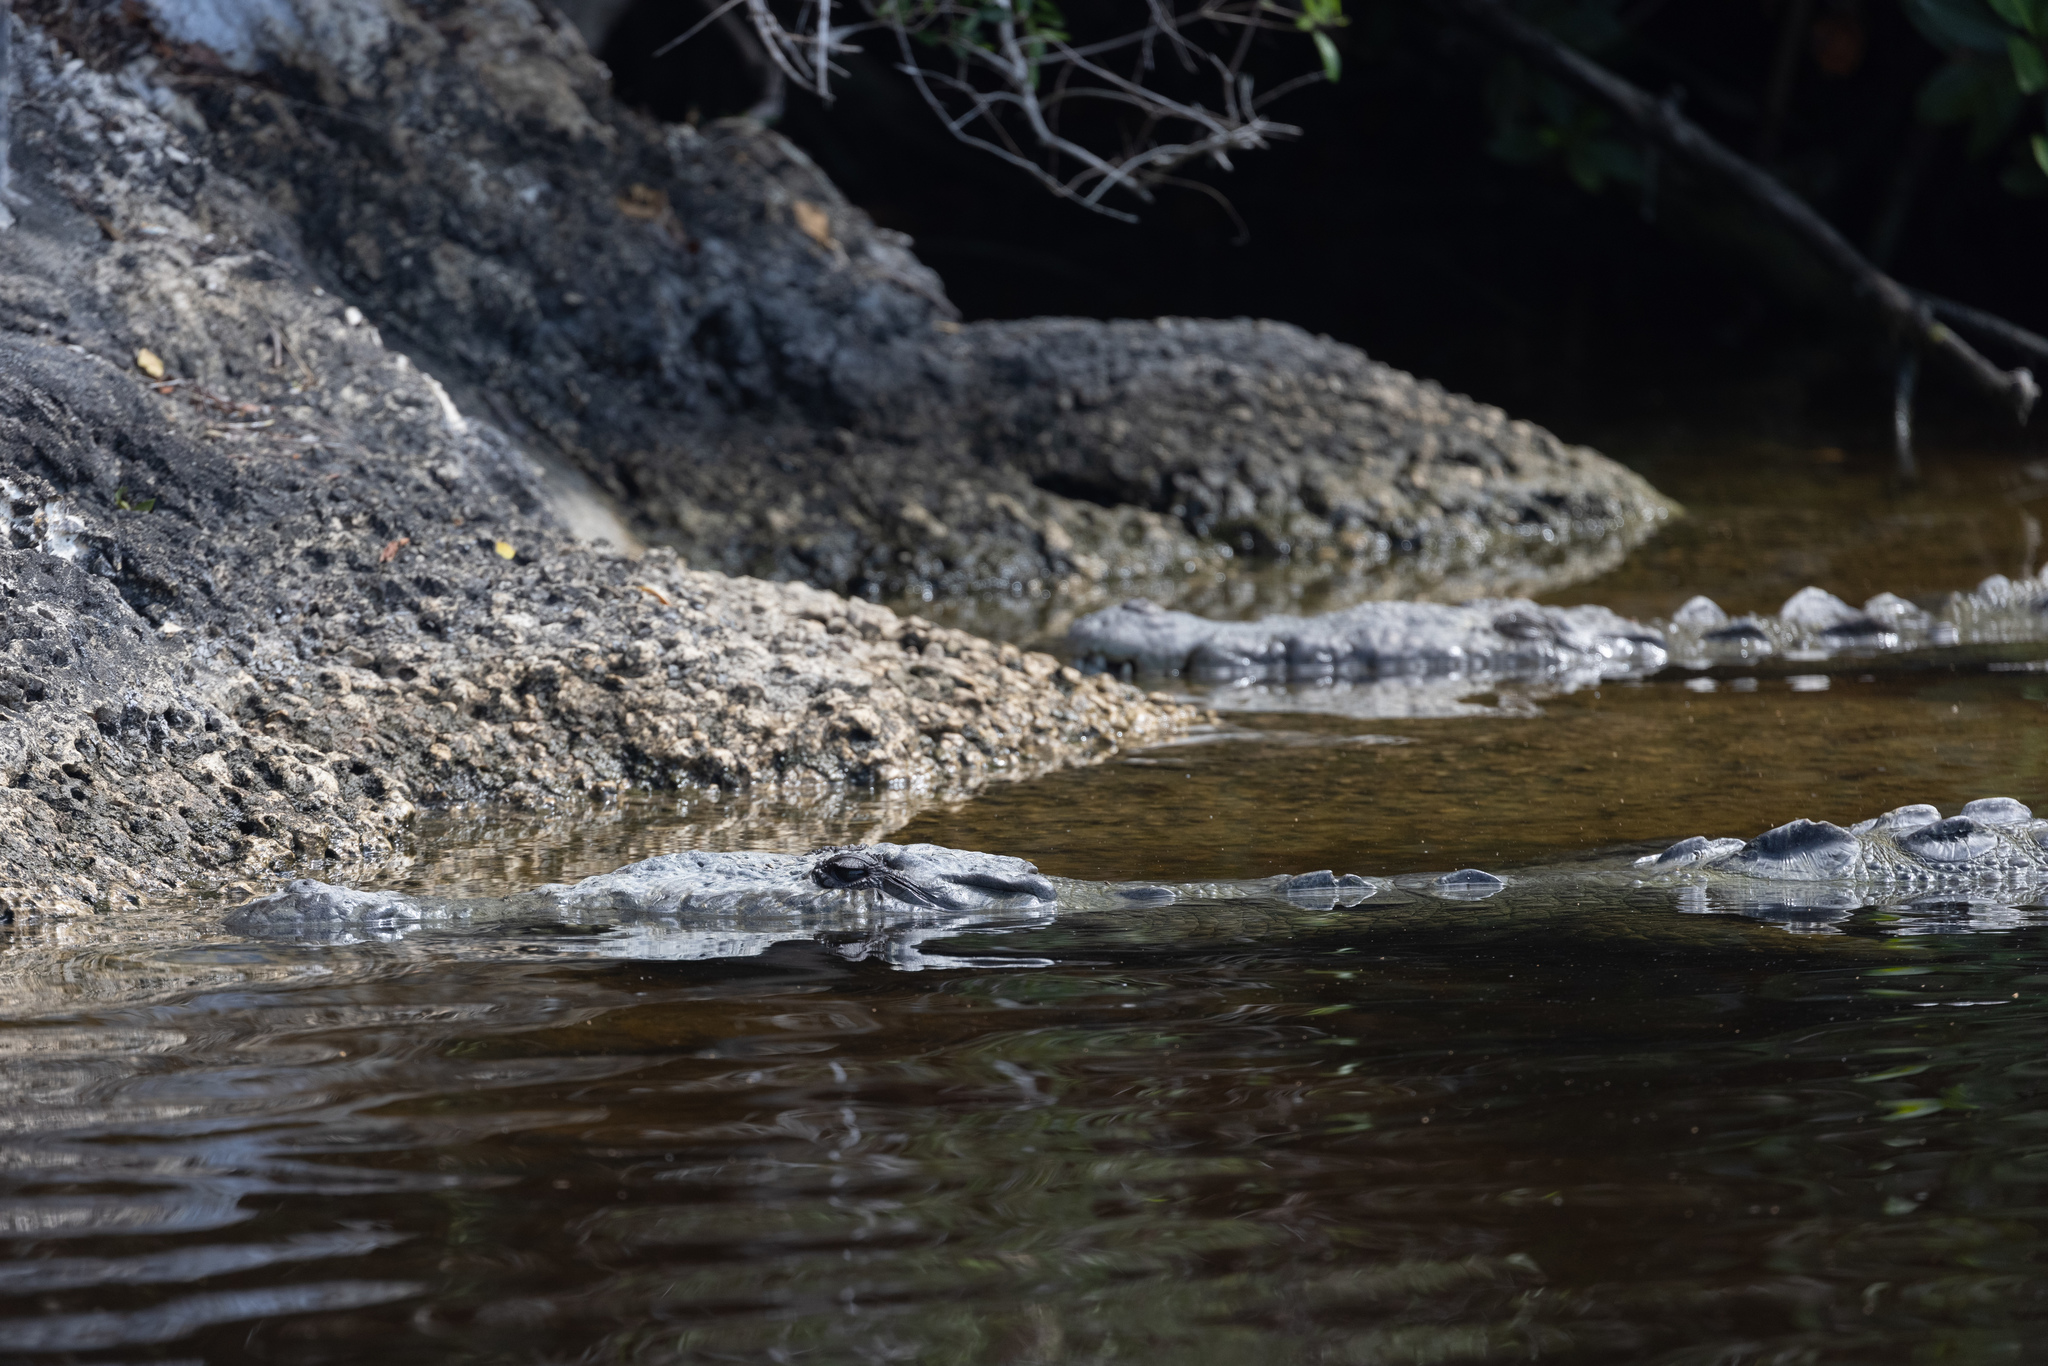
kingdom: Animalia
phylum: Chordata
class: Crocodylia
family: Crocodylidae
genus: Crocodylus
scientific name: Crocodylus acutus
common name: American crocodile
